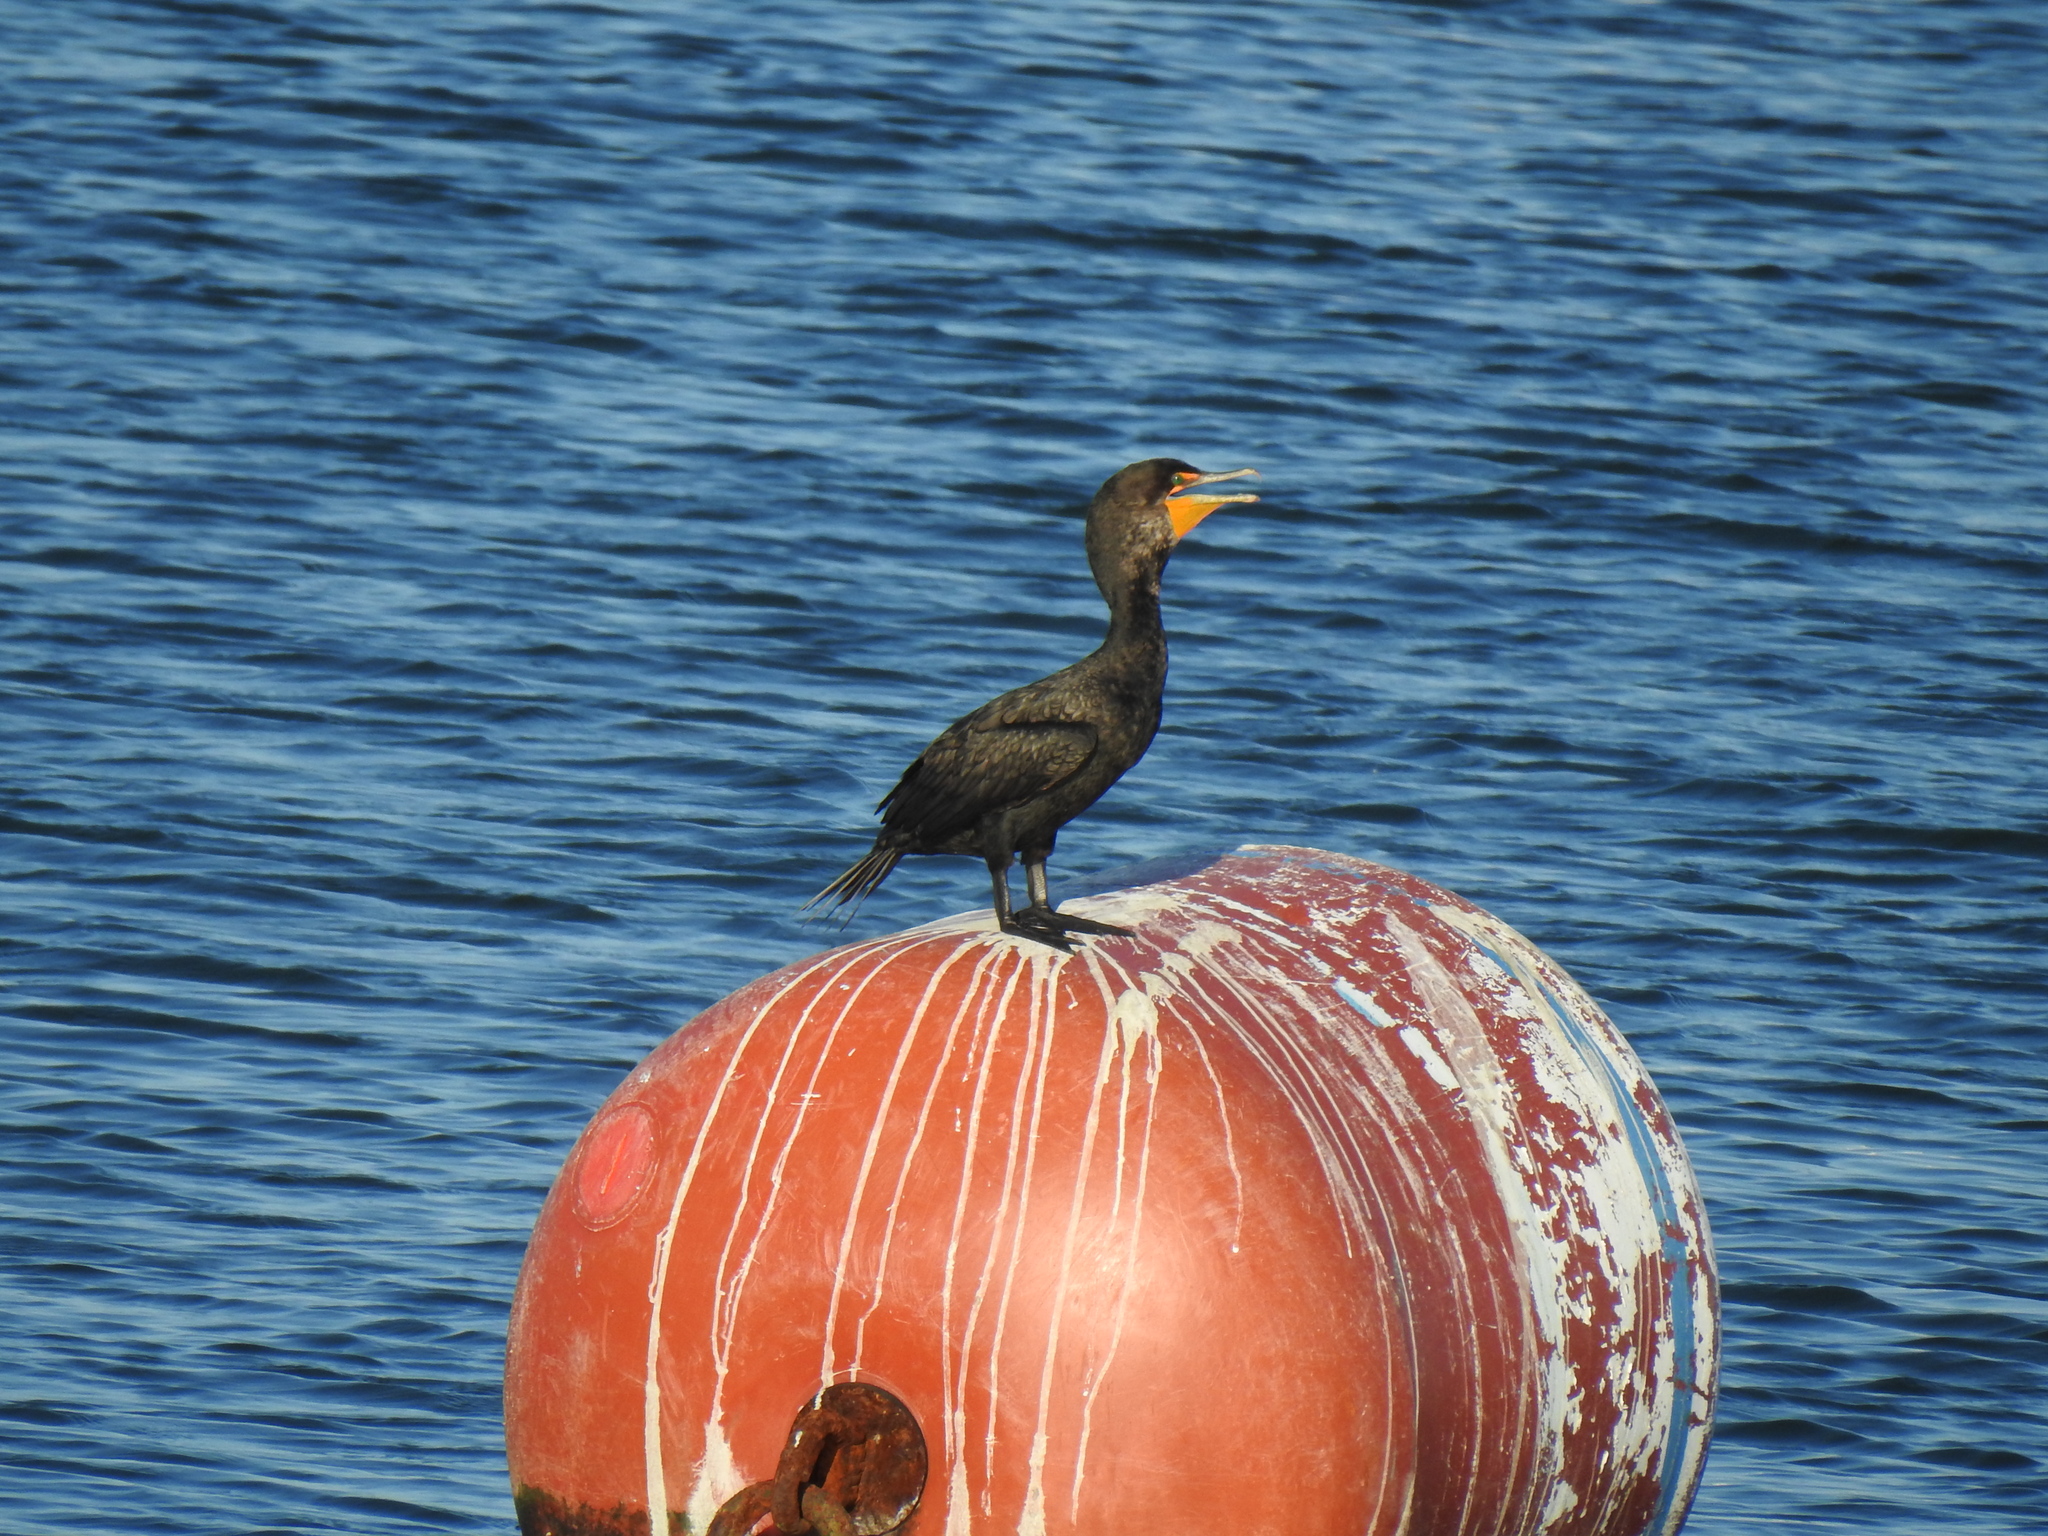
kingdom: Animalia
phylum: Chordata
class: Aves
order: Suliformes
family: Phalacrocoracidae
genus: Phalacrocorax
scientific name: Phalacrocorax auritus
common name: Double-crested cormorant
